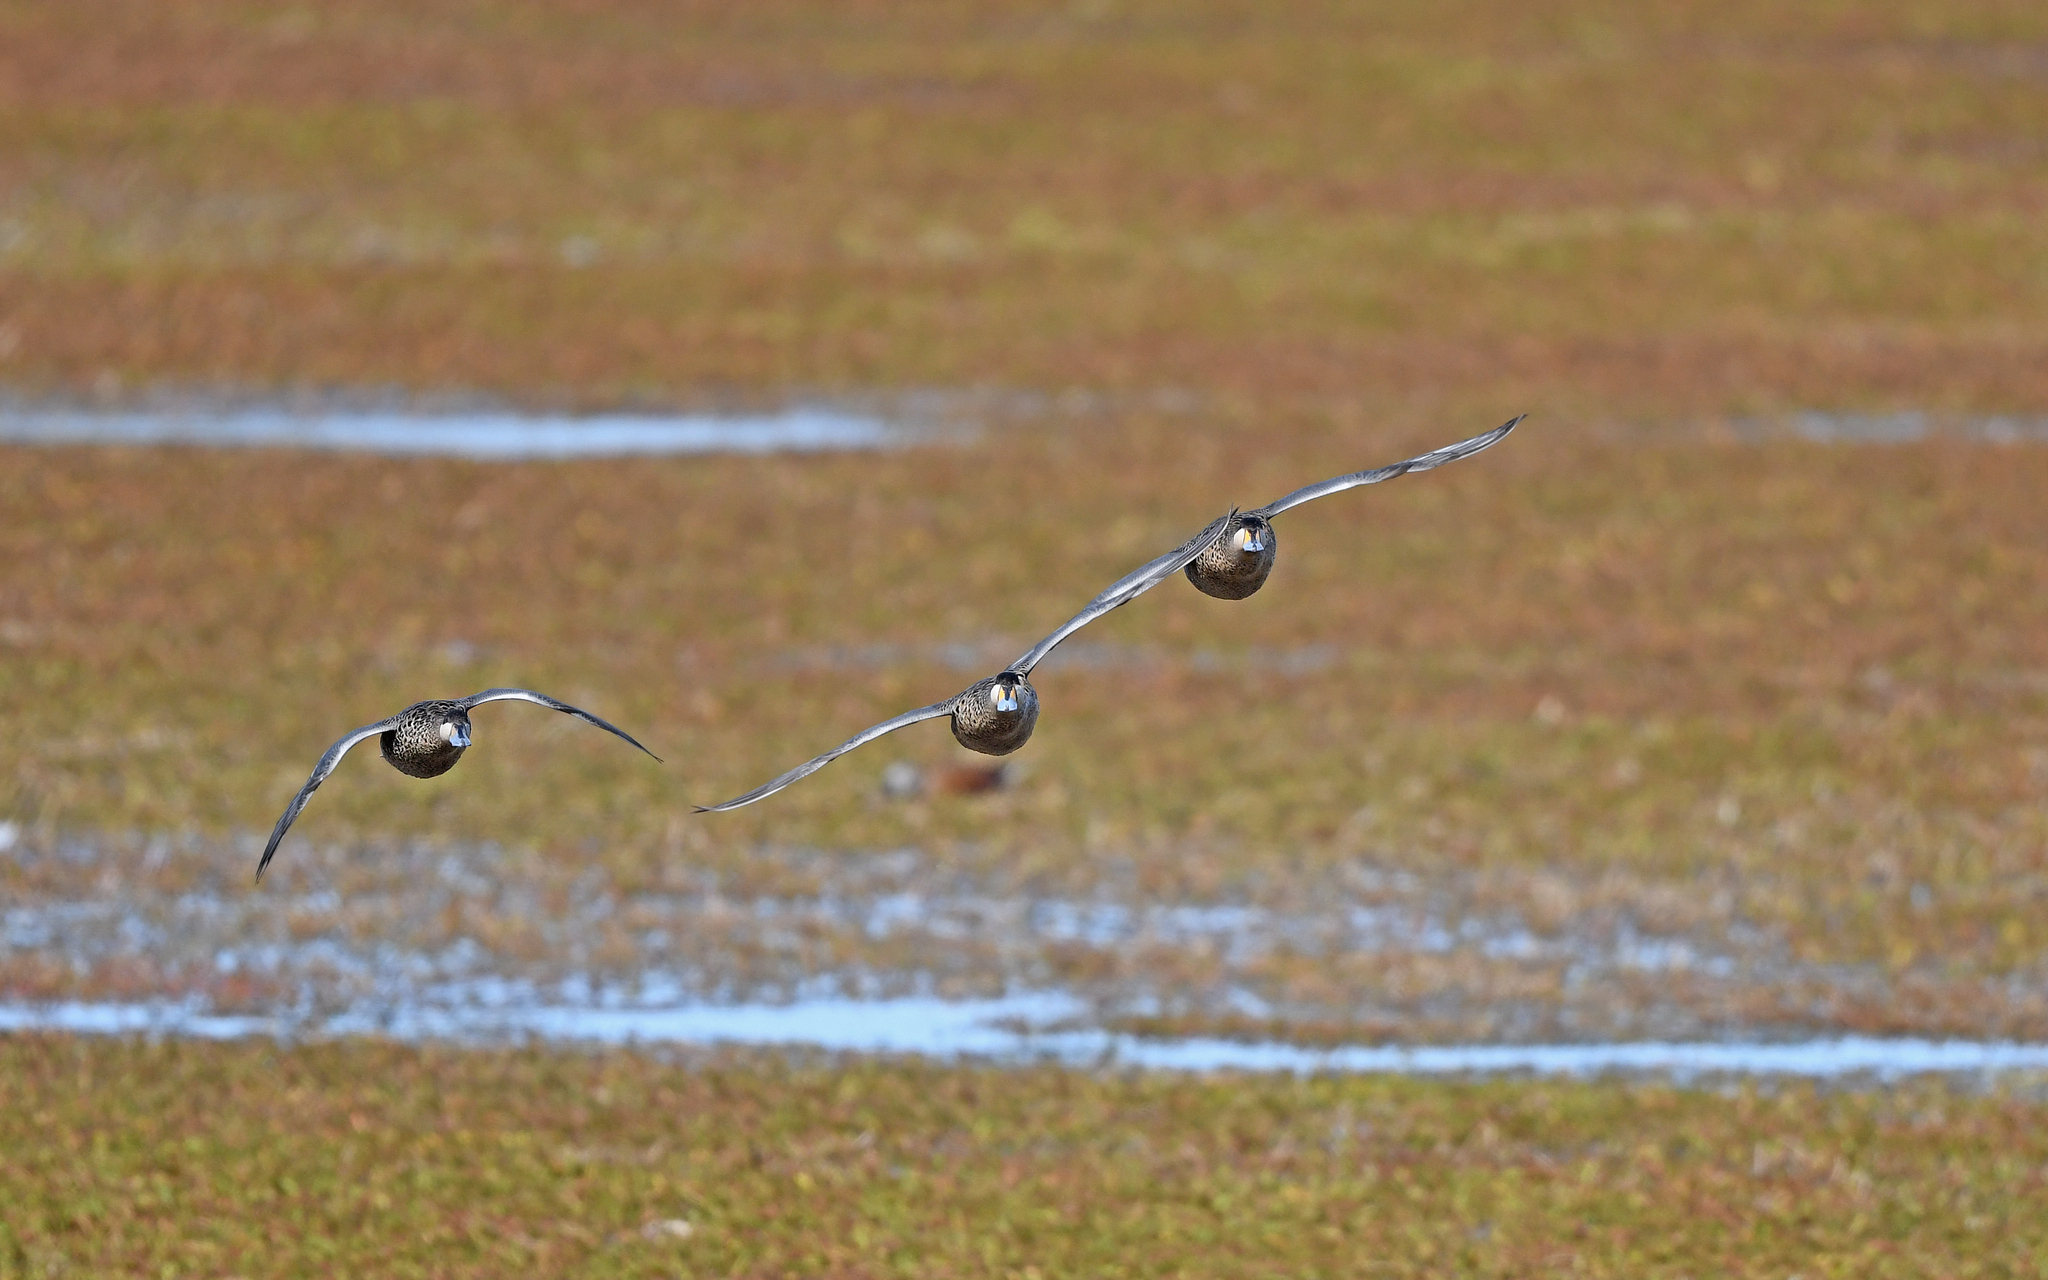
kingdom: Animalia
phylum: Chordata
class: Aves
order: Anseriformes
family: Anatidae
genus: Spatula
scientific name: Spatula versicolor
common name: Silver teal
